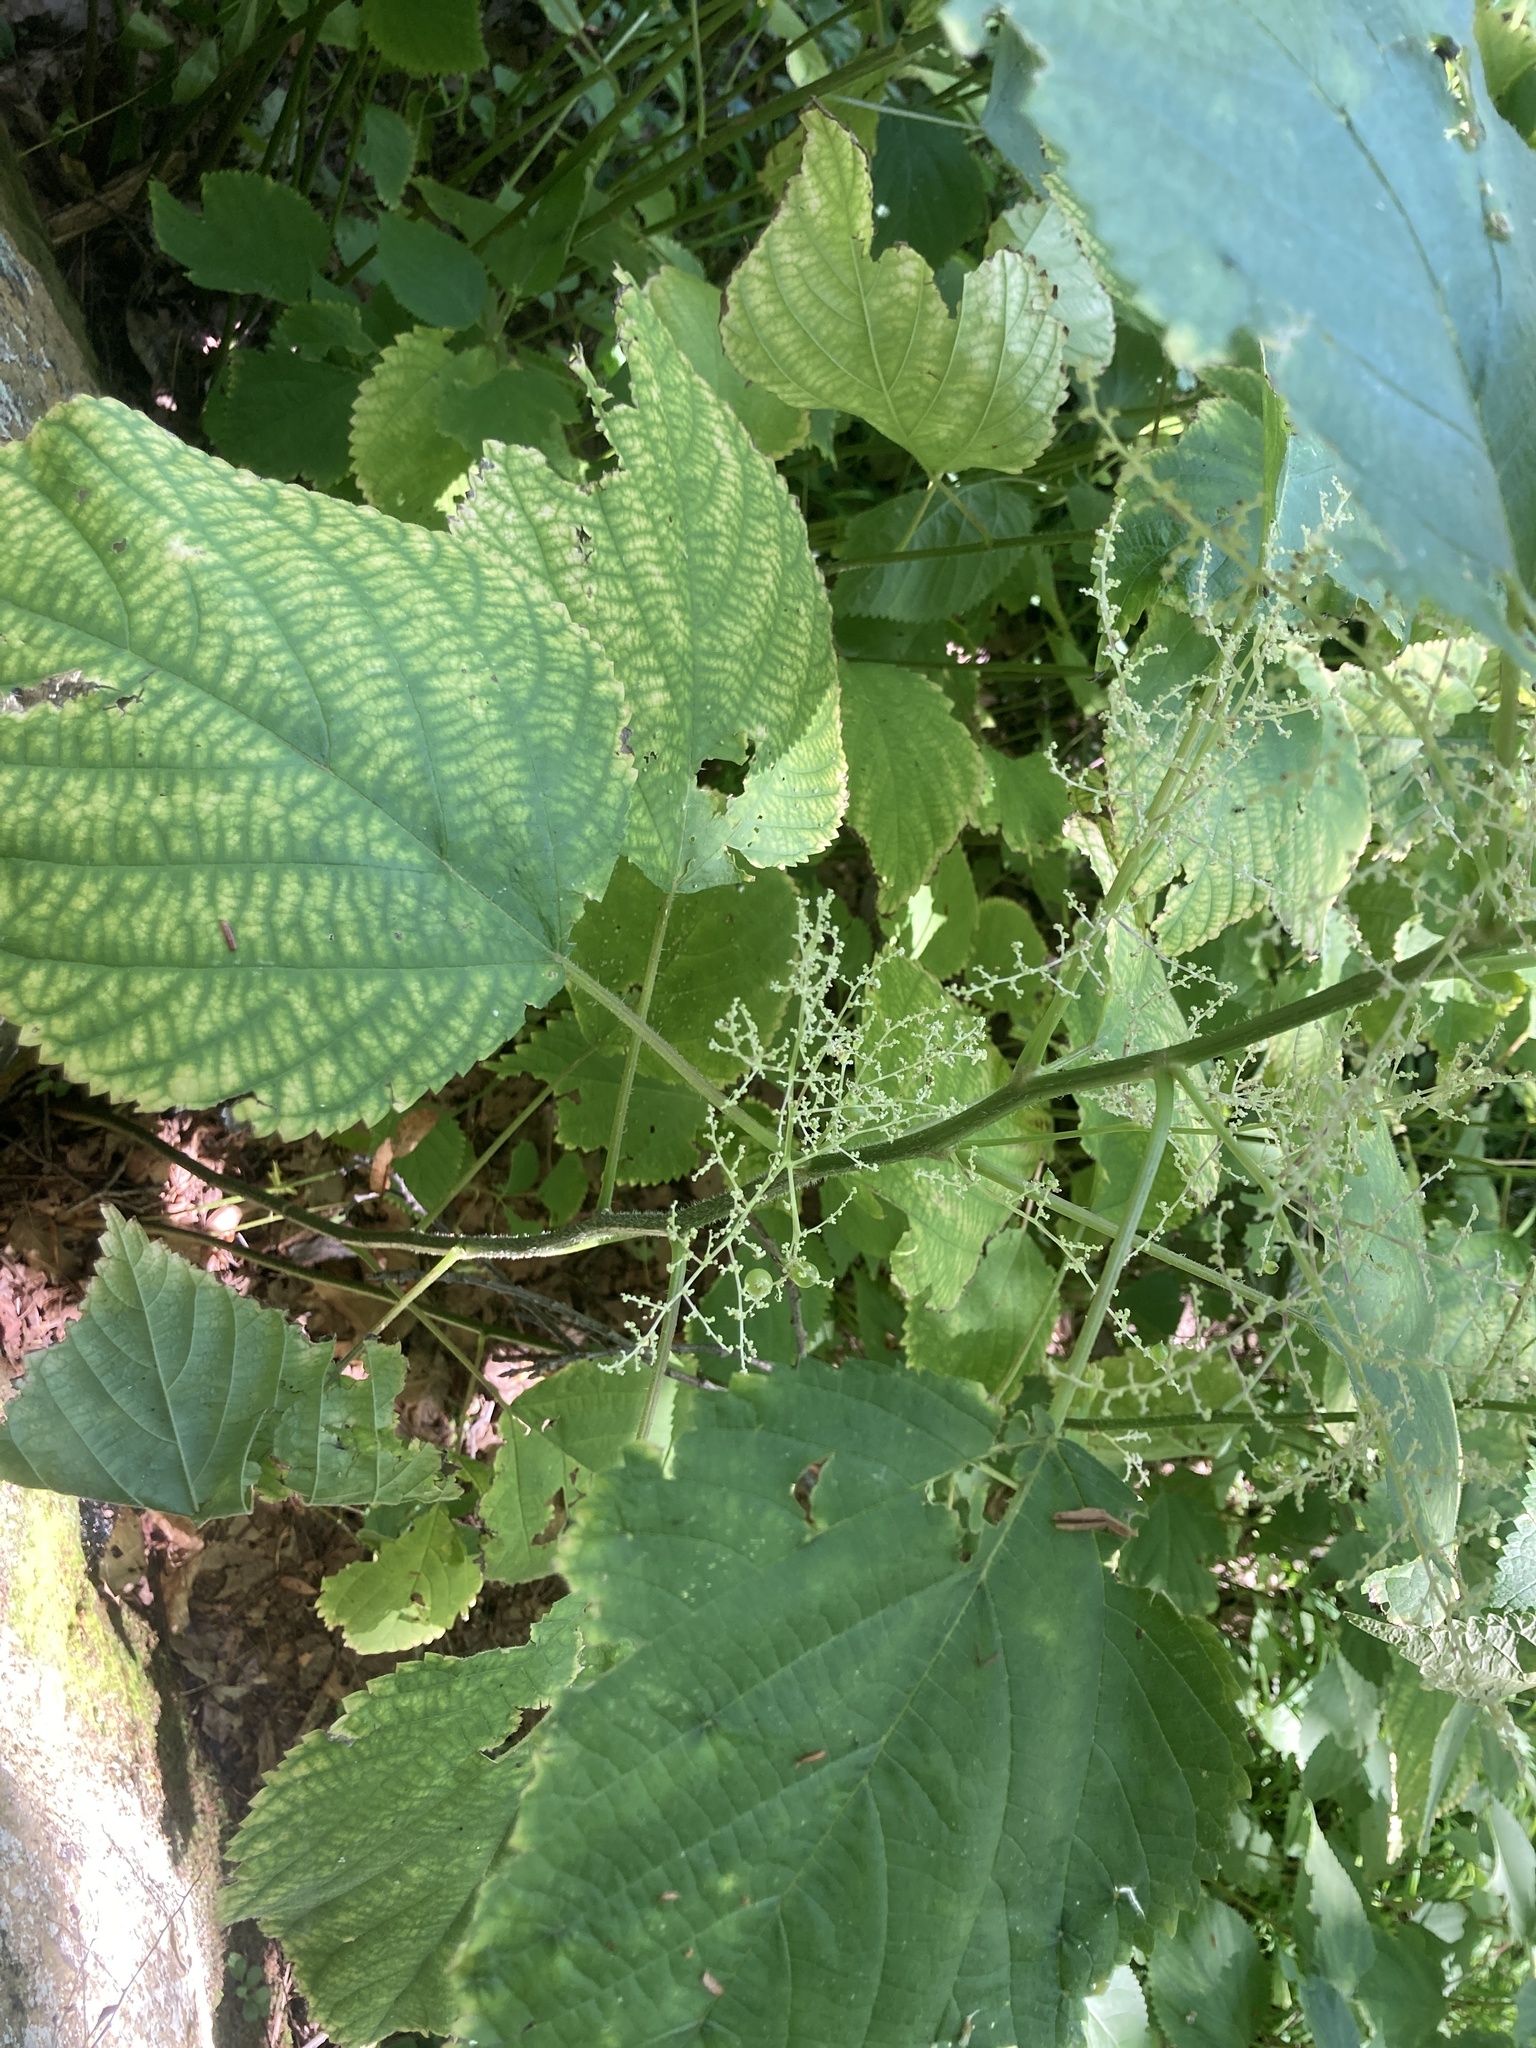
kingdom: Plantae
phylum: Tracheophyta
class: Magnoliopsida
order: Rosales
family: Urticaceae
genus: Laportea
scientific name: Laportea canadensis
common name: Canada nettle
